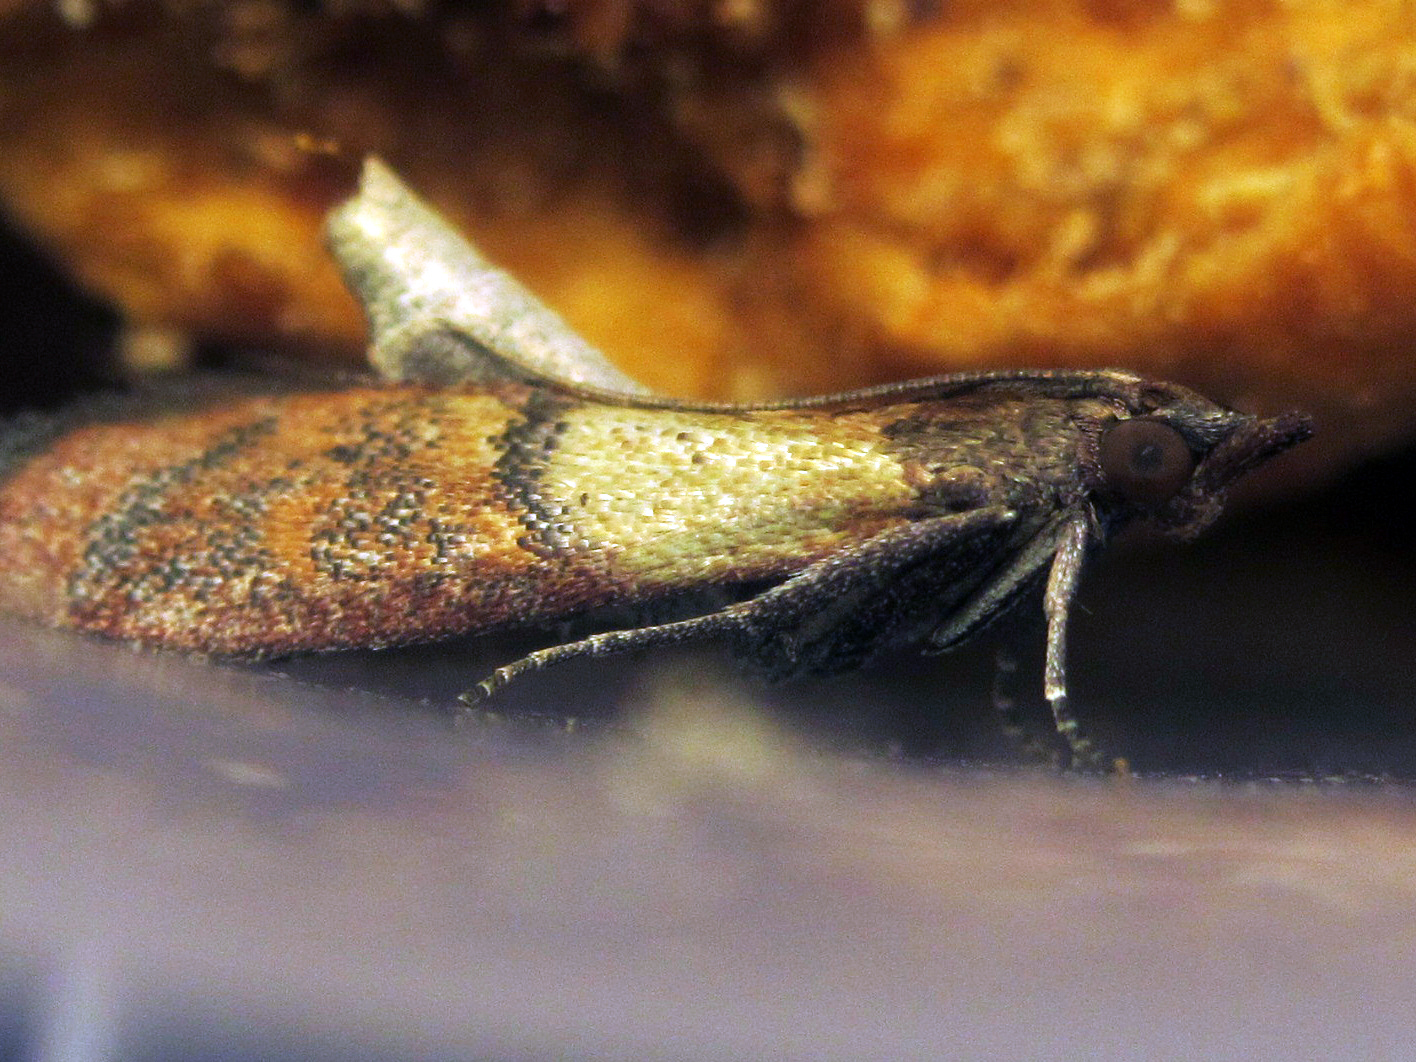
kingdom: Animalia
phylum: Arthropoda
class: Insecta
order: Lepidoptera
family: Pyralidae
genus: Plodia
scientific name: Plodia interpunctella
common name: Indian meal moth
